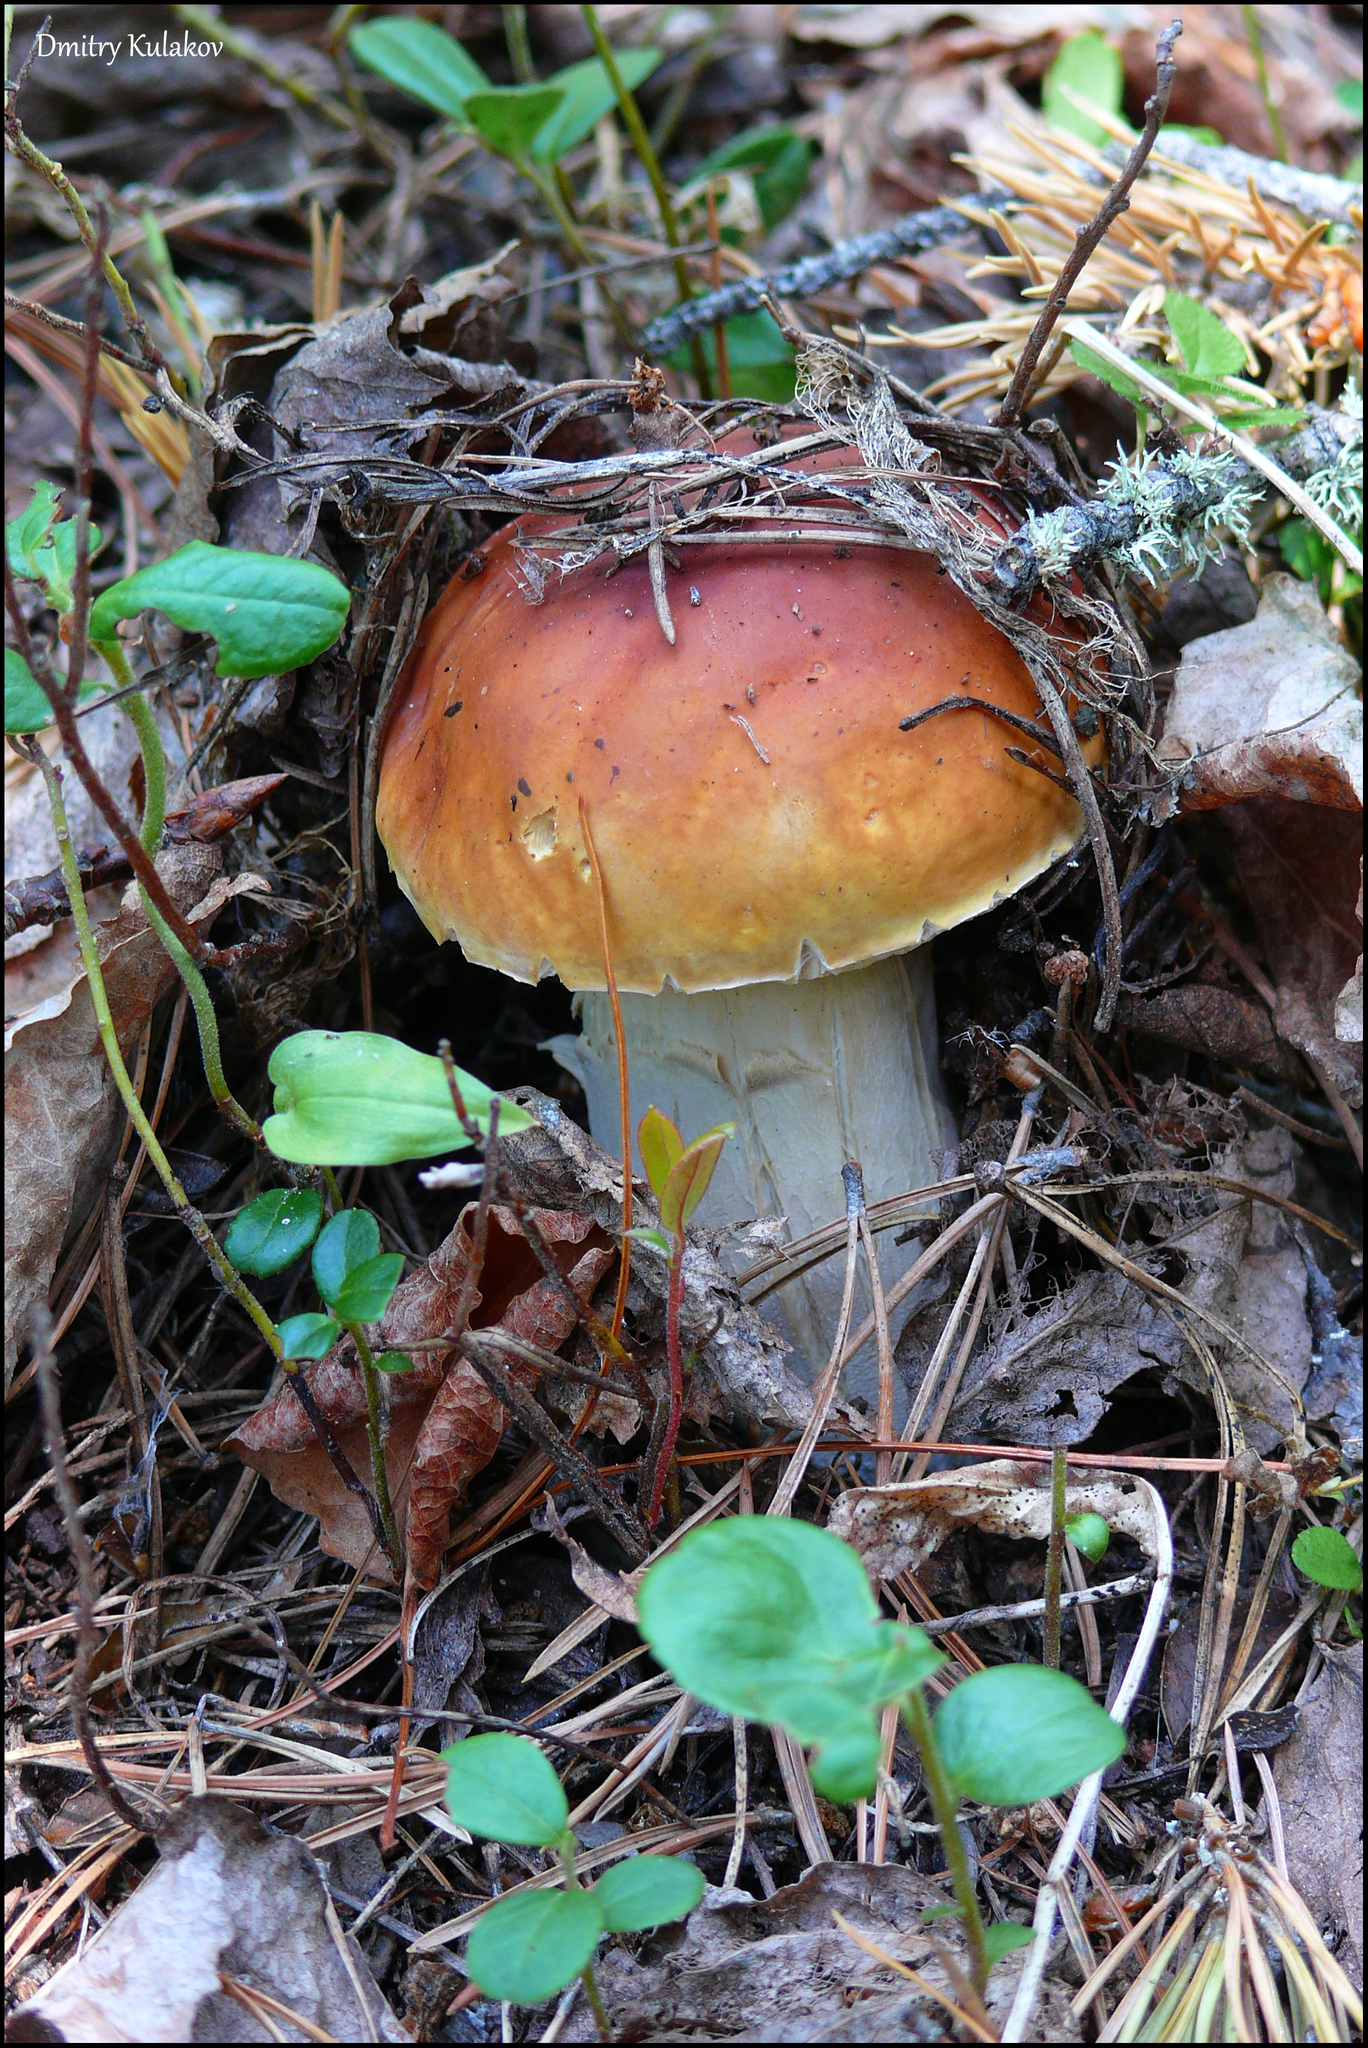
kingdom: Fungi
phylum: Basidiomycota
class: Agaricomycetes
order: Boletales
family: Boletaceae
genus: Boletus
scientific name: Boletus edulis
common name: Cep
